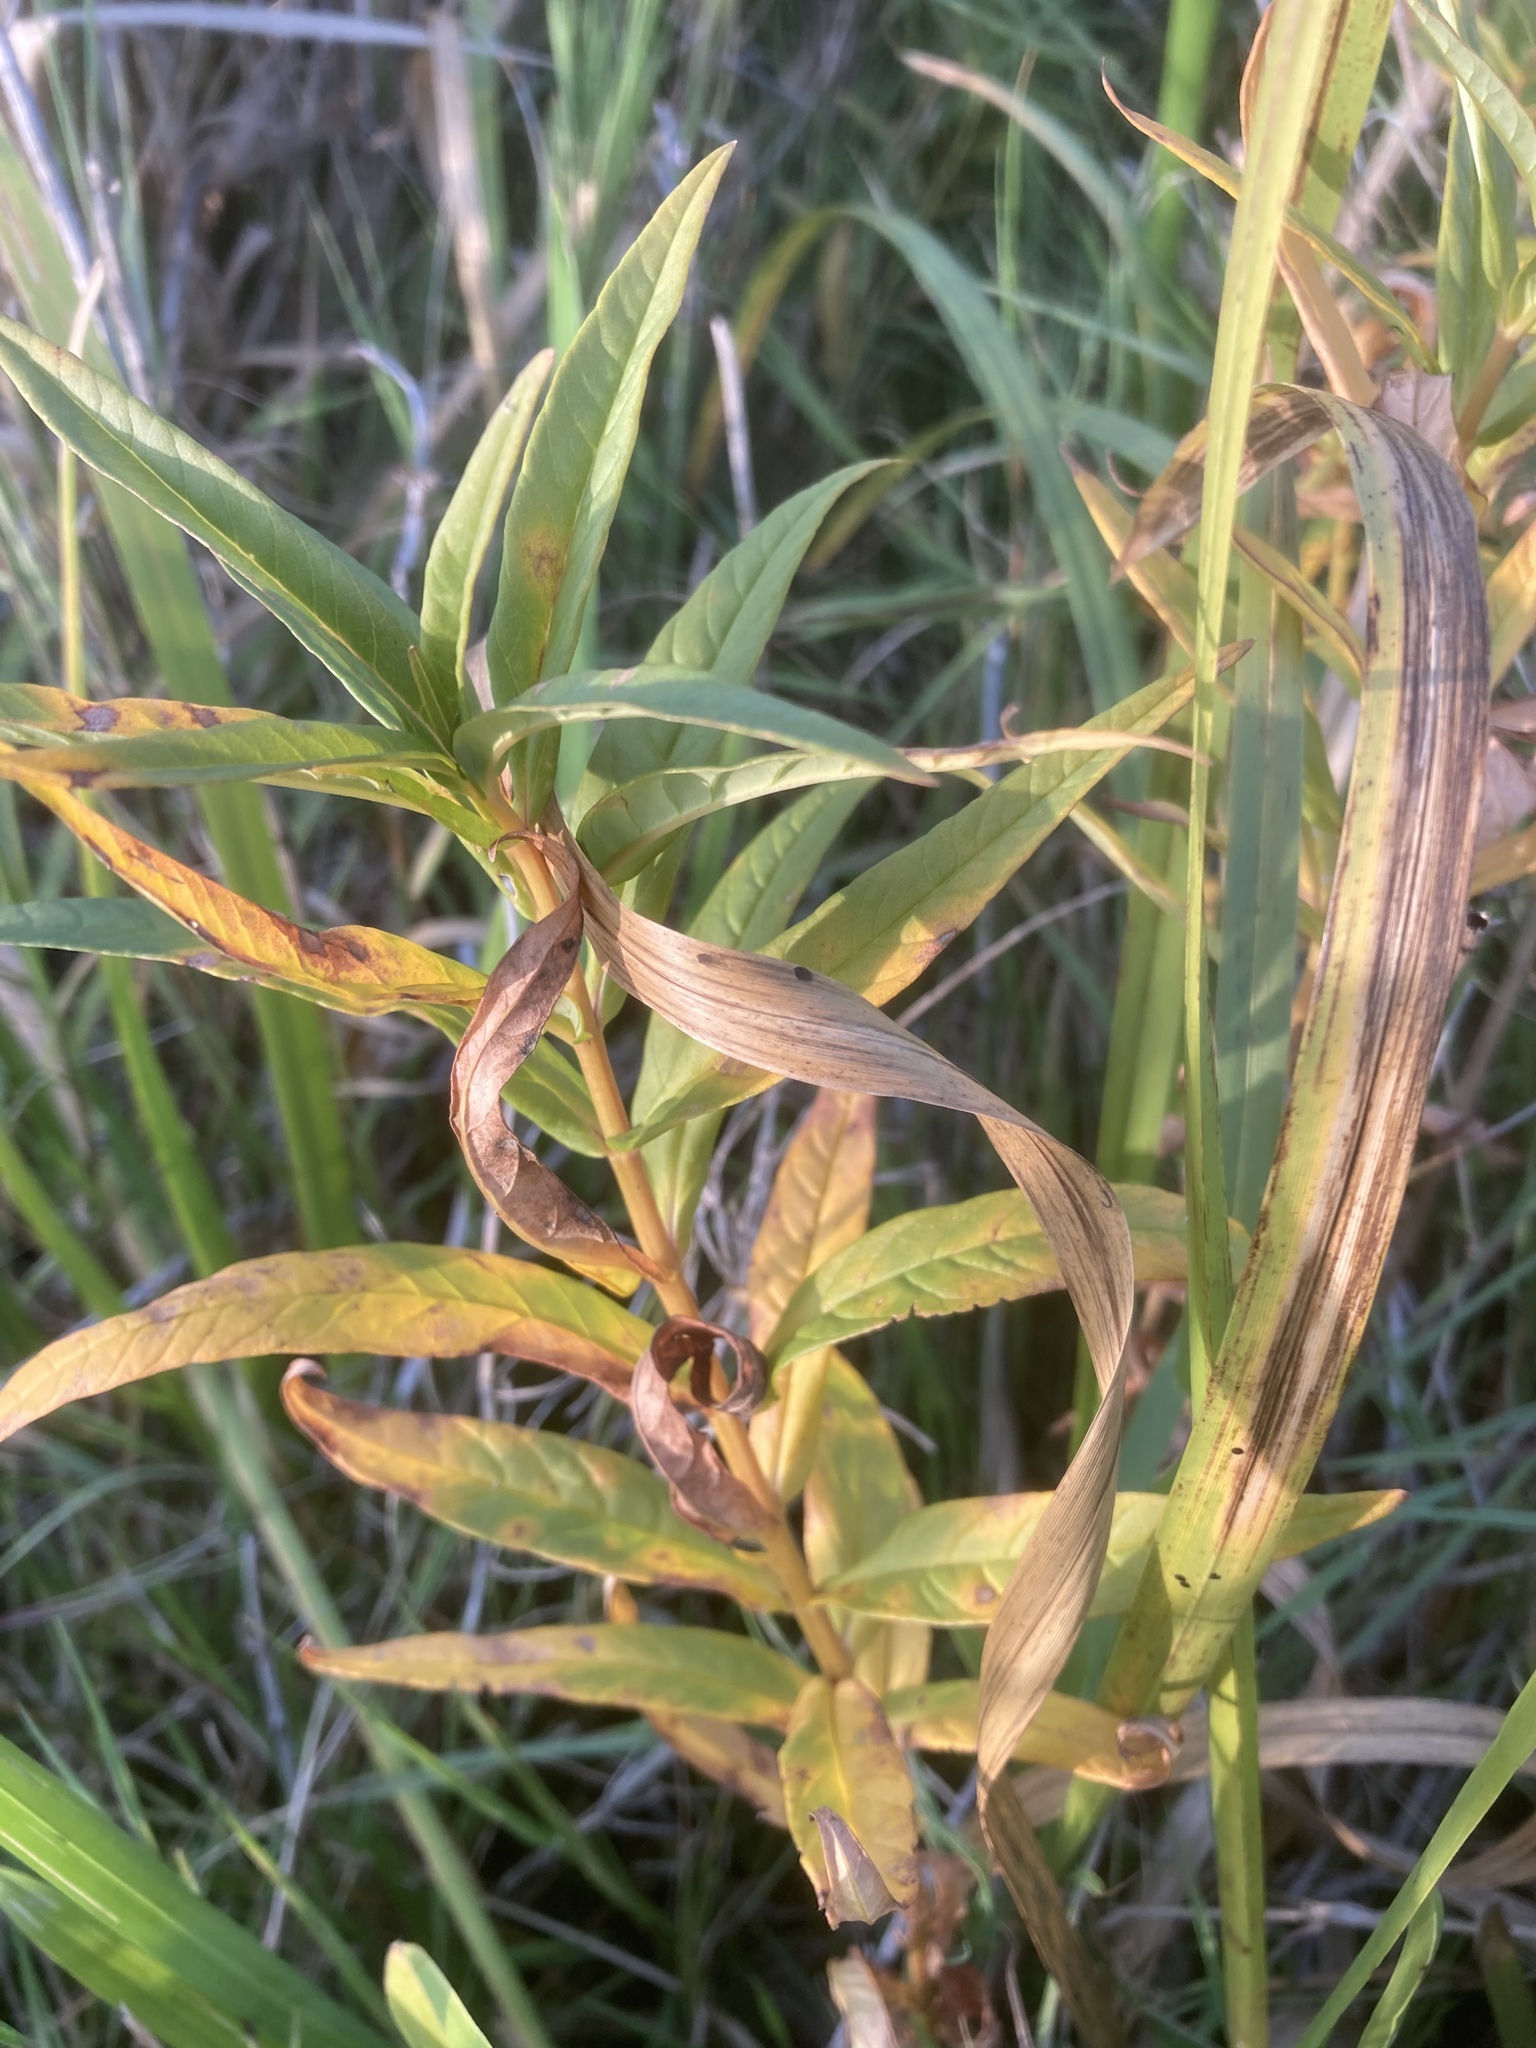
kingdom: Plantae
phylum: Tracheophyta
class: Magnoliopsida
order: Ericales
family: Primulaceae
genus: Lysimachia
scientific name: Lysimachia thyrsiflora
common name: Tufted loosestrife
